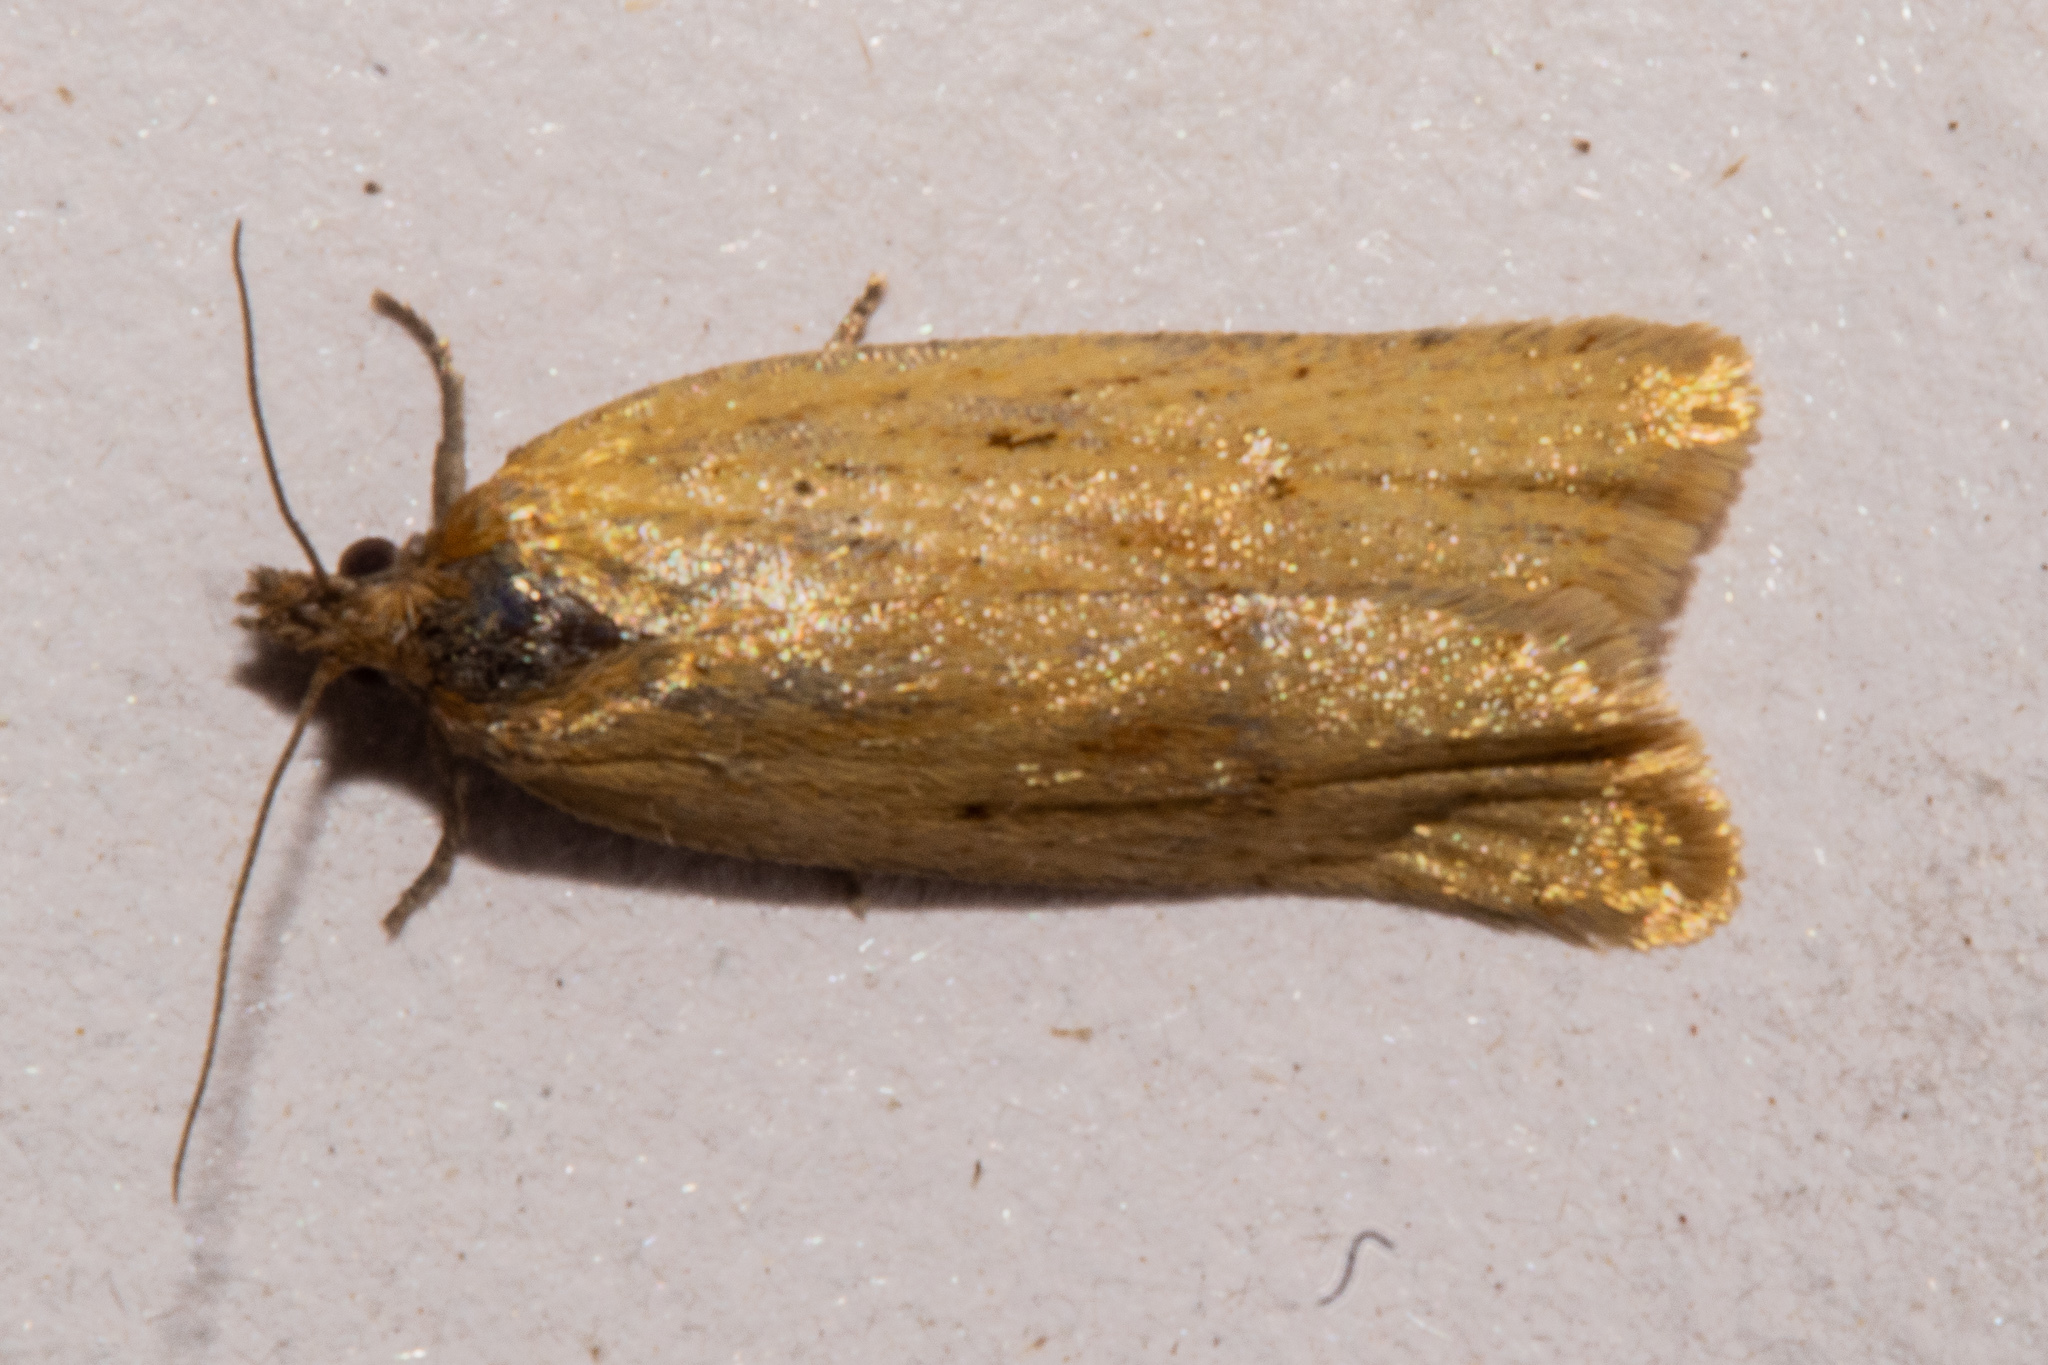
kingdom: Animalia
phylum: Arthropoda
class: Insecta
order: Lepidoptera
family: Tortricidae
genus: Clepsis
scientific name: Clepsis
